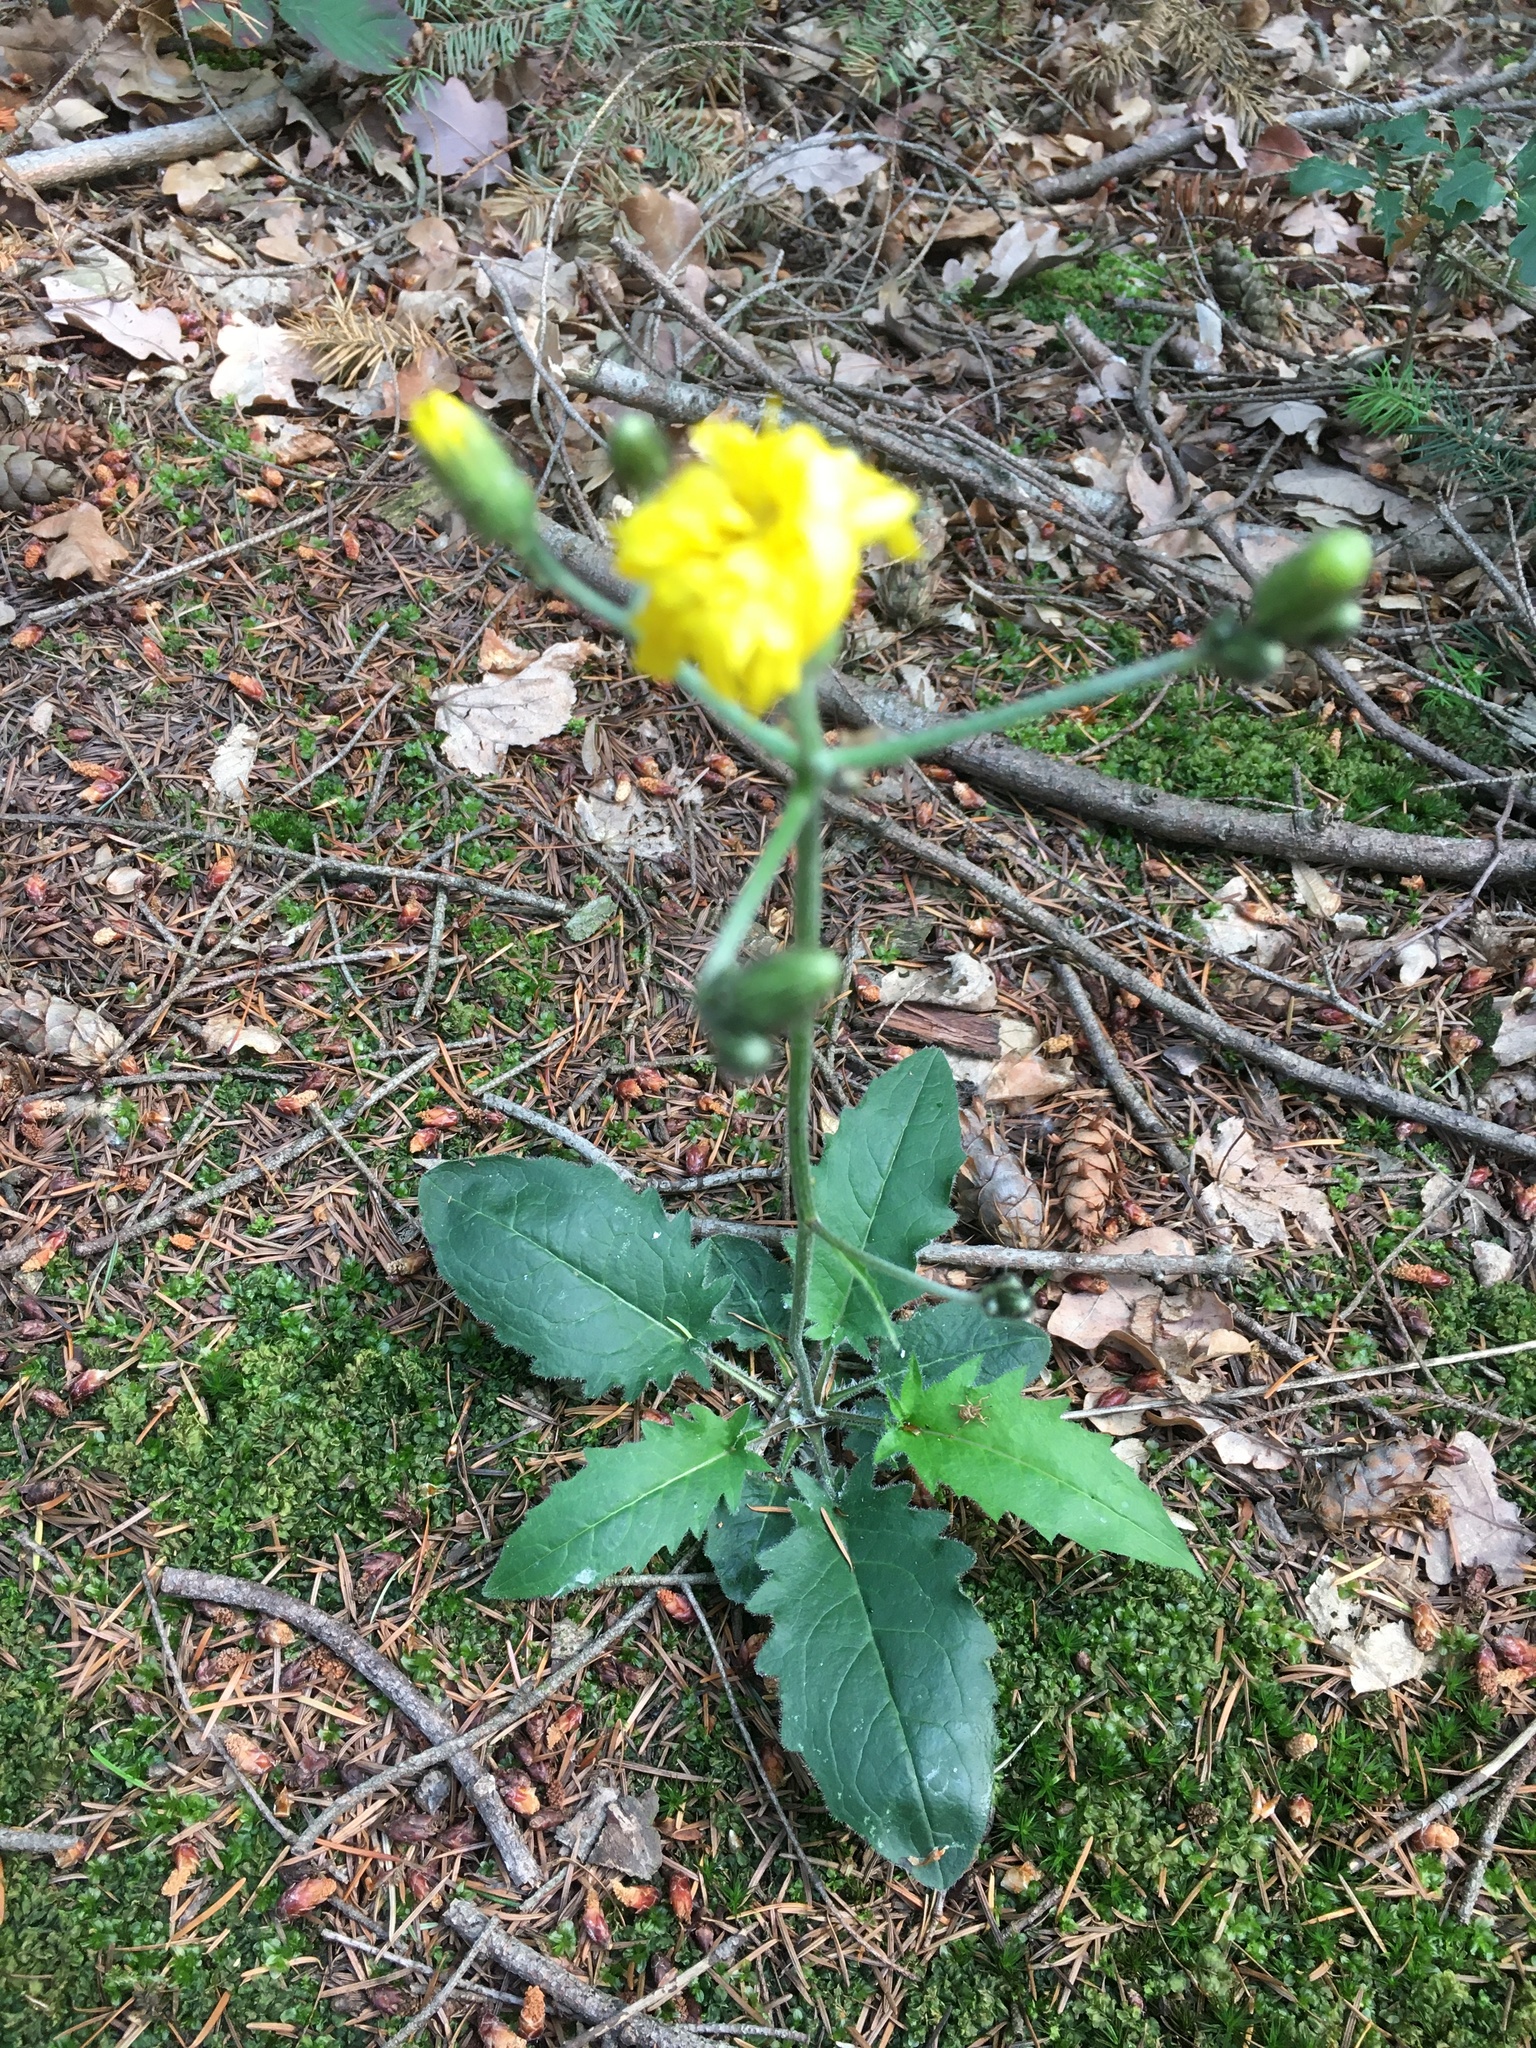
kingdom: Plantae
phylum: Tracheophyta
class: Magnoliopsida
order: Asterales
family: Asteraceae
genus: Hieracium
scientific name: Hieracium murorum
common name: Wall hawkweed
